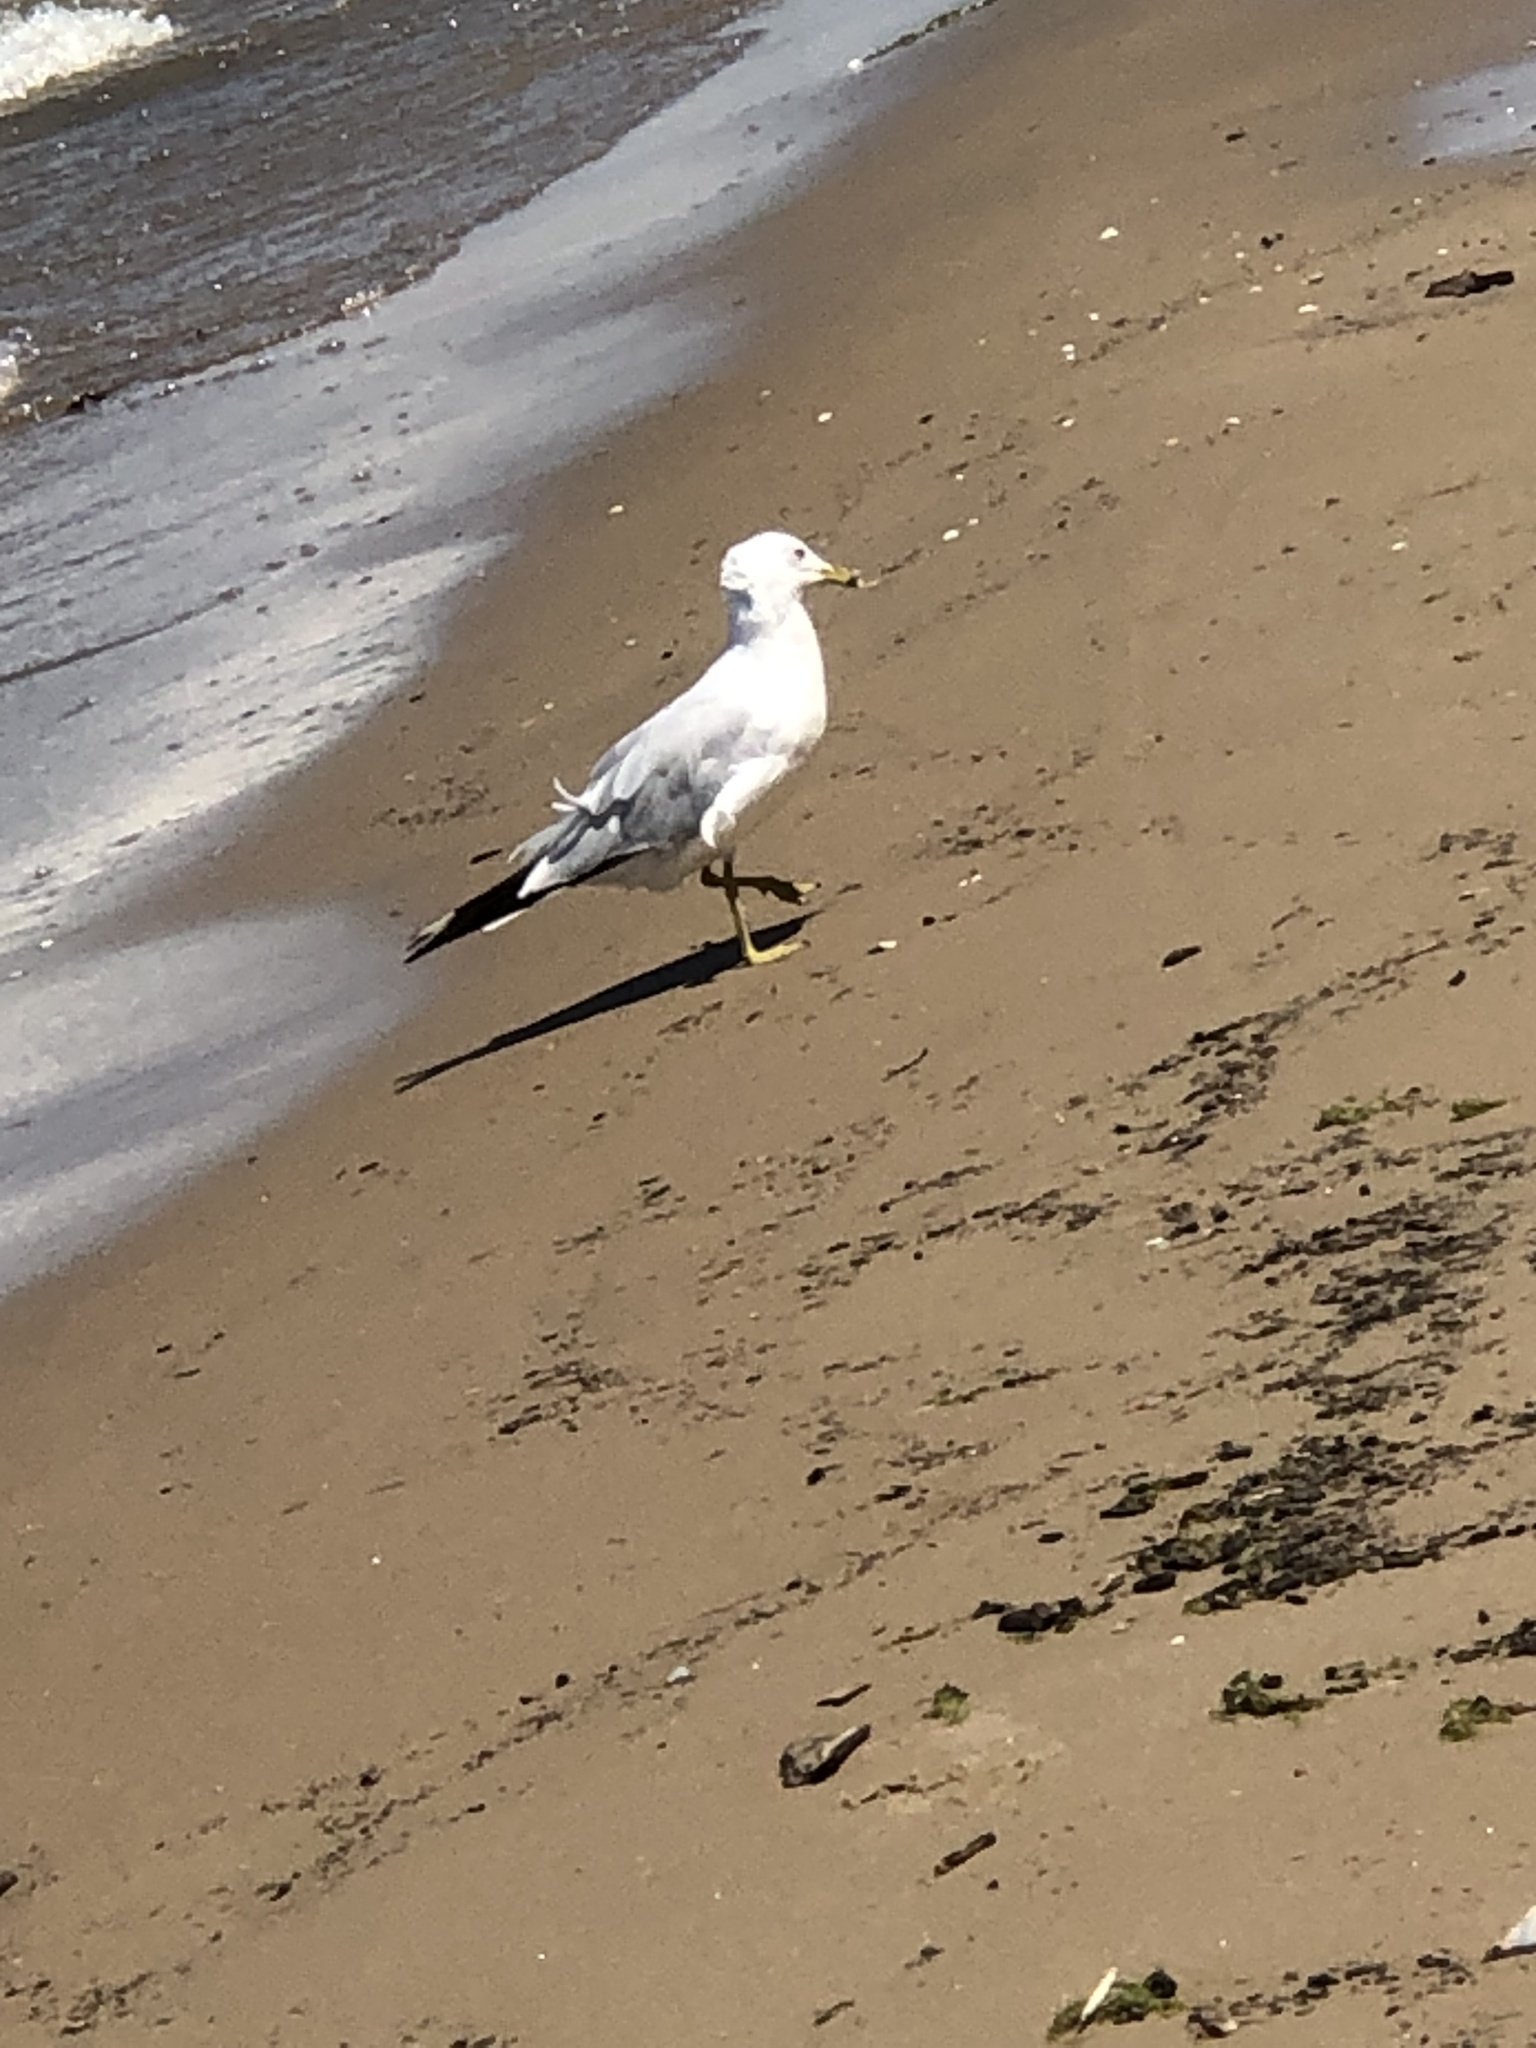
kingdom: Animalia
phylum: Chordata
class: Aves
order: Charadriiformes
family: Laridae
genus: Larus
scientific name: Larus delawarensis
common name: Ring-billed gull
